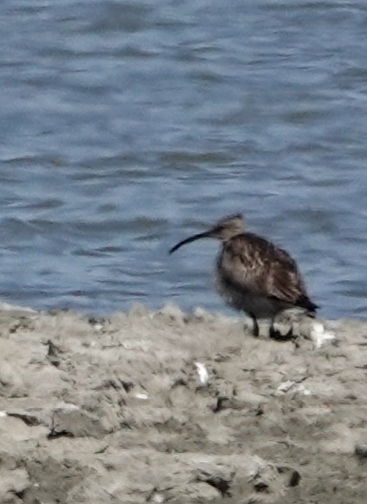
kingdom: Animalia
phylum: Chordata
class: Aves
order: Charadriiformes
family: Scolopacidae
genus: Numenius
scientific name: Numenius phaeopus
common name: Whimbrel
